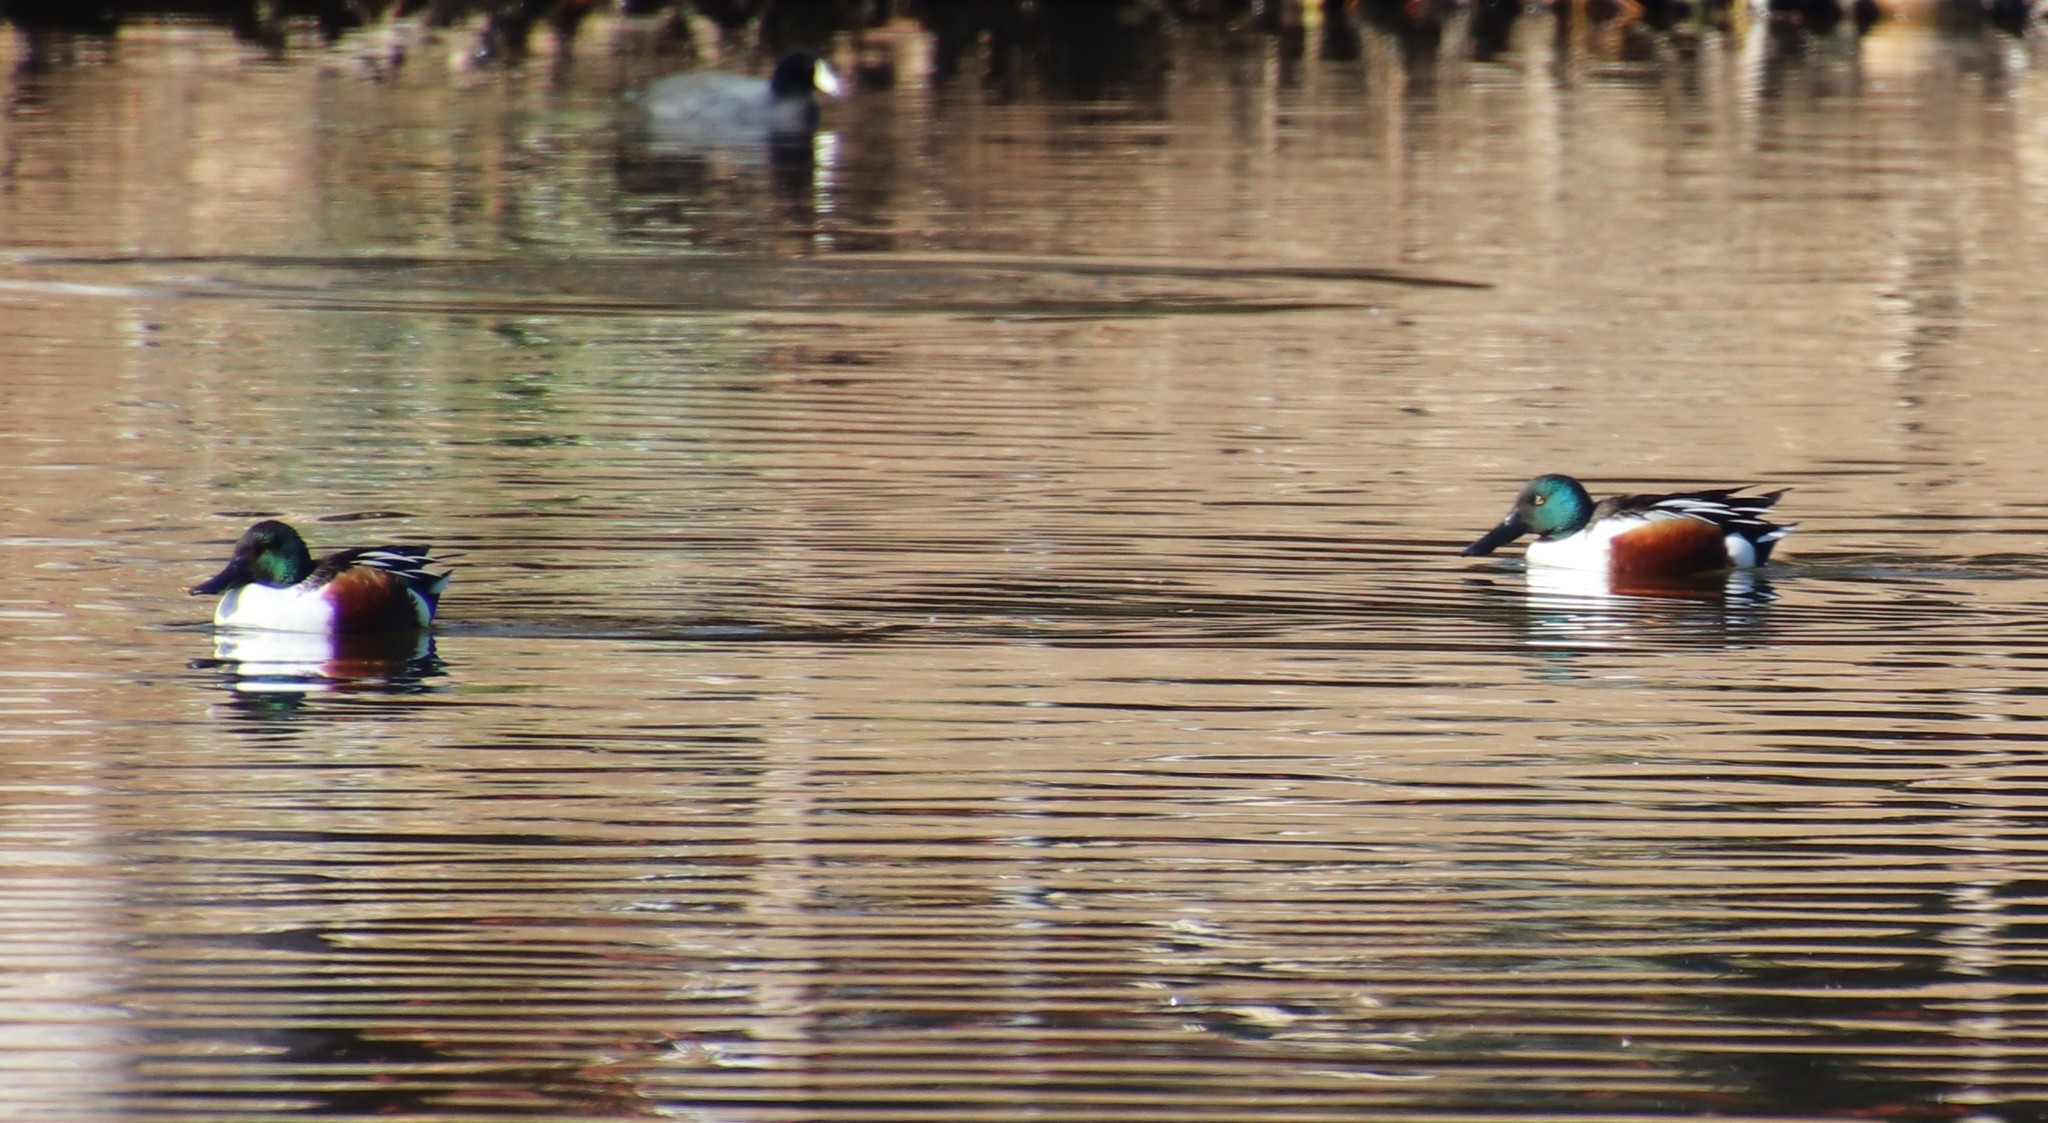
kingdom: Animalia
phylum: Chordata
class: Aves
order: Anseriformes
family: Anatidae
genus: Spatula
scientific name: Spatula clypeata
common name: Northern shoveler
